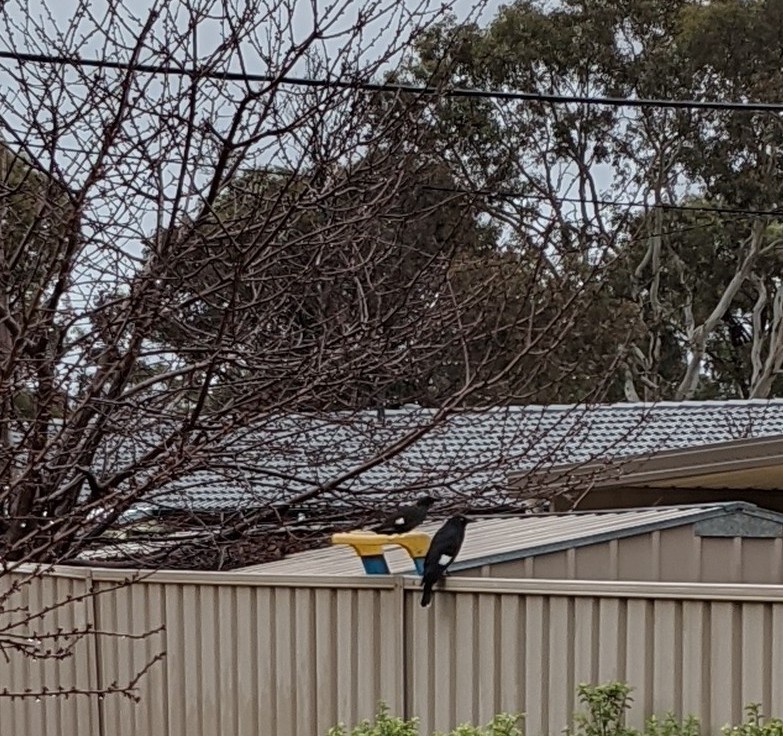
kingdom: Animalia
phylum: Chordata
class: Aves
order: Passeriformes
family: Cracticidae
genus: Strepera
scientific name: Strepera graculina
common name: Pied currawong
